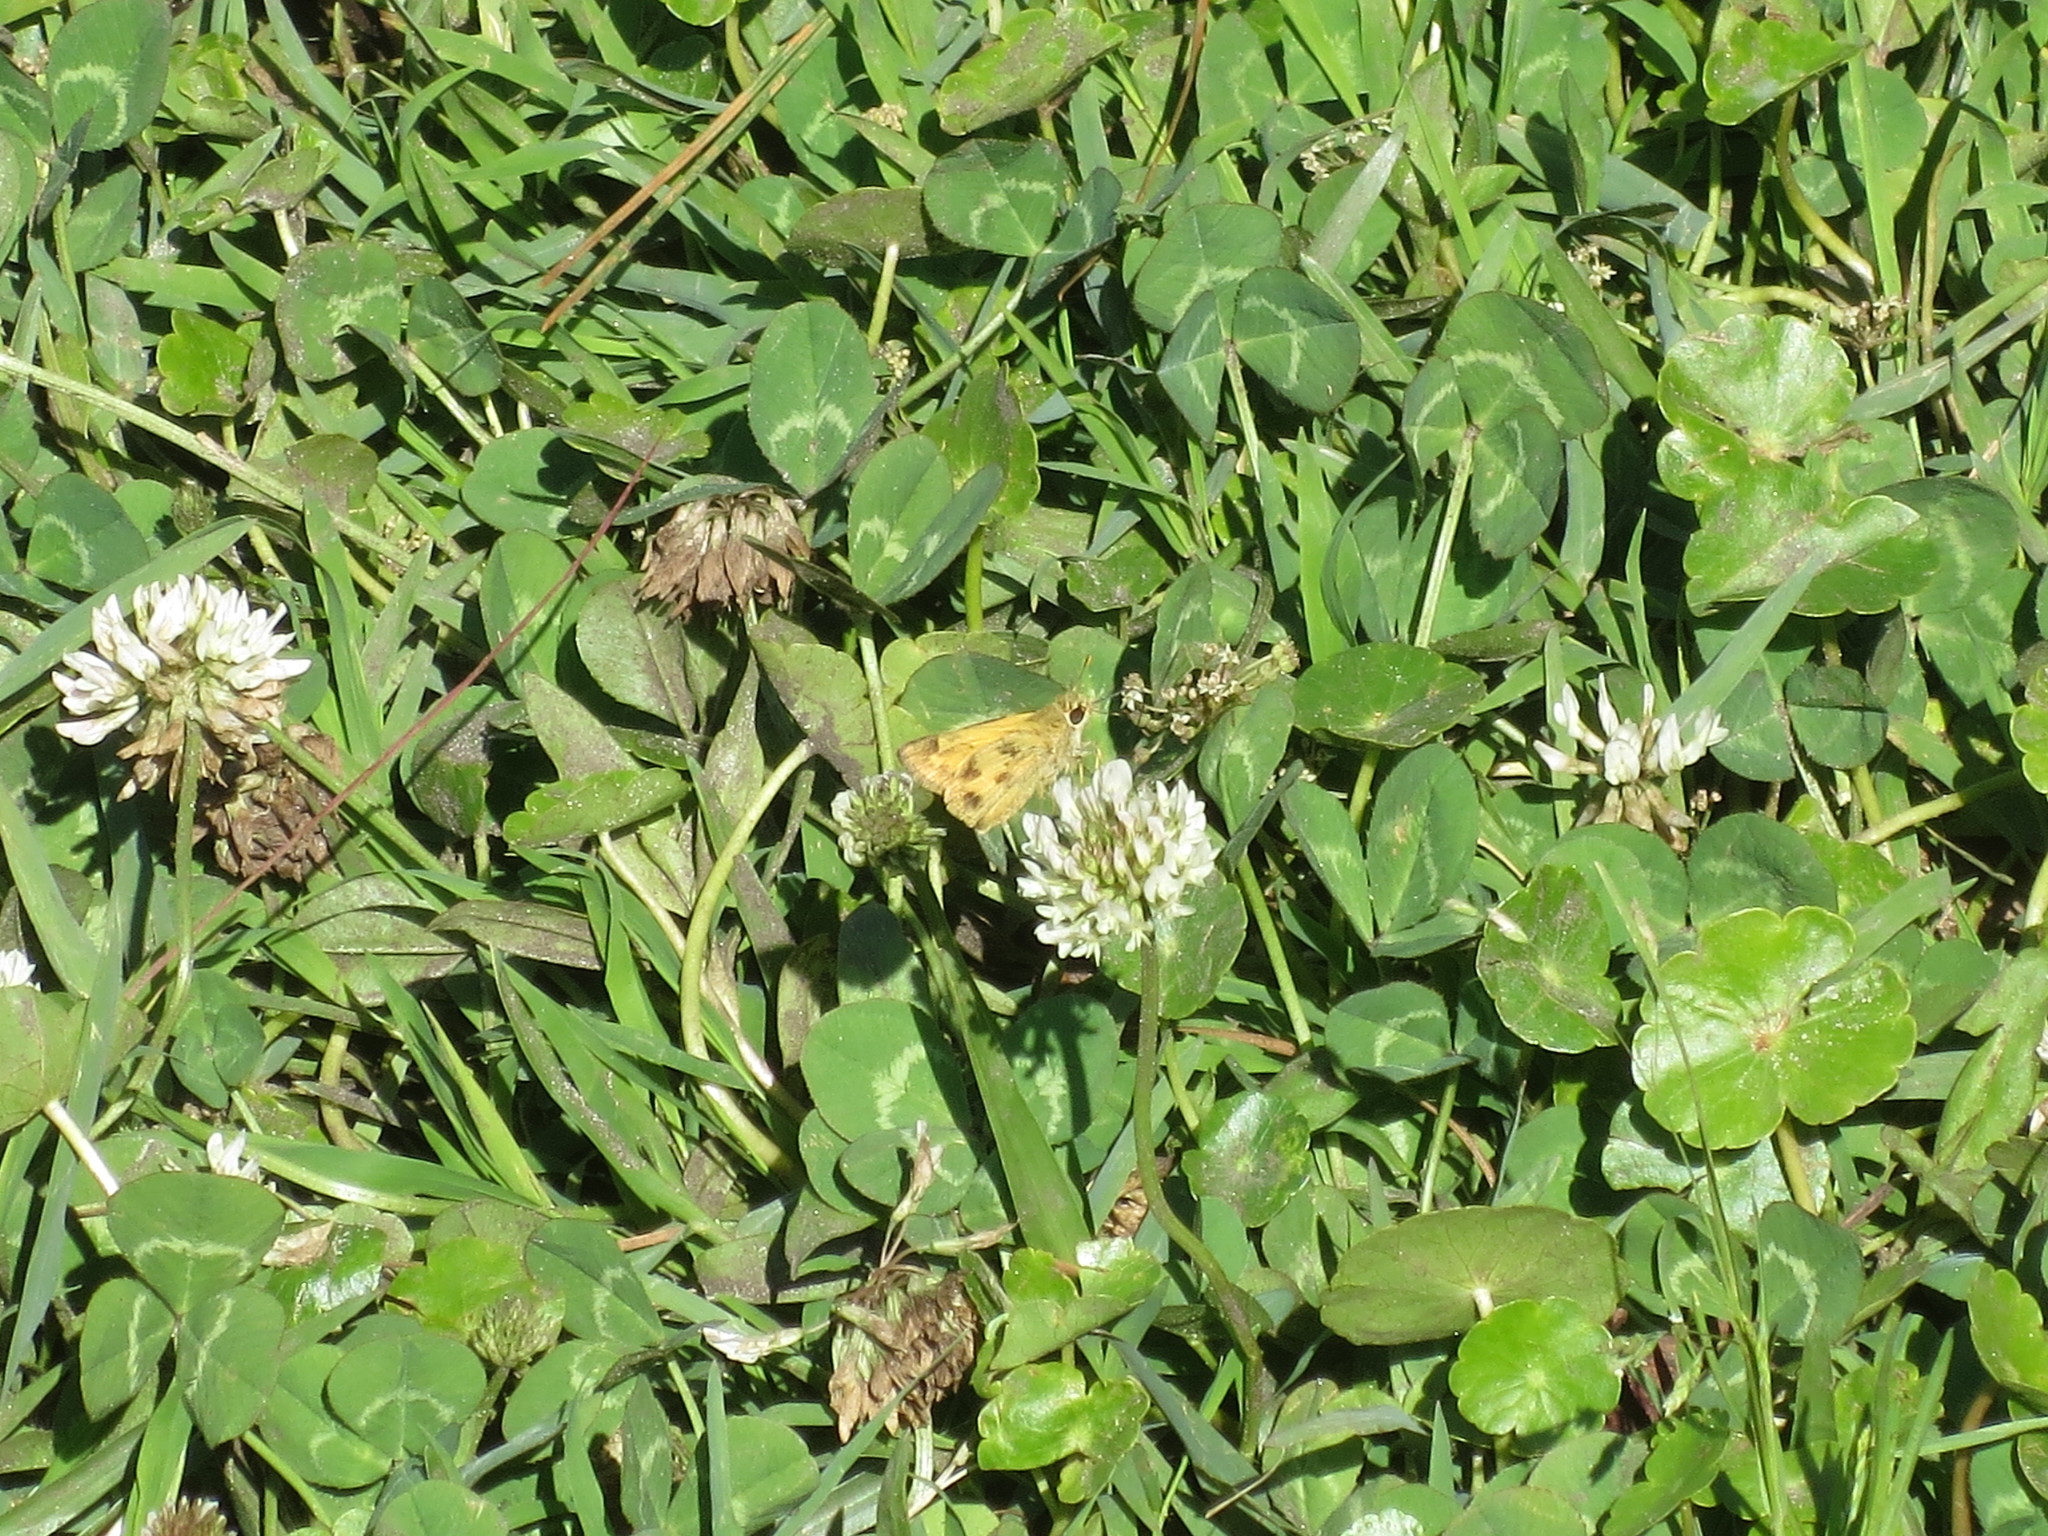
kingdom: Animalia
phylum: Arthropoda
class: Insecta
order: Lepidoptera
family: Hesperiidae
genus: Polites
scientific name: Polites vibex
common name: Whirlabout
